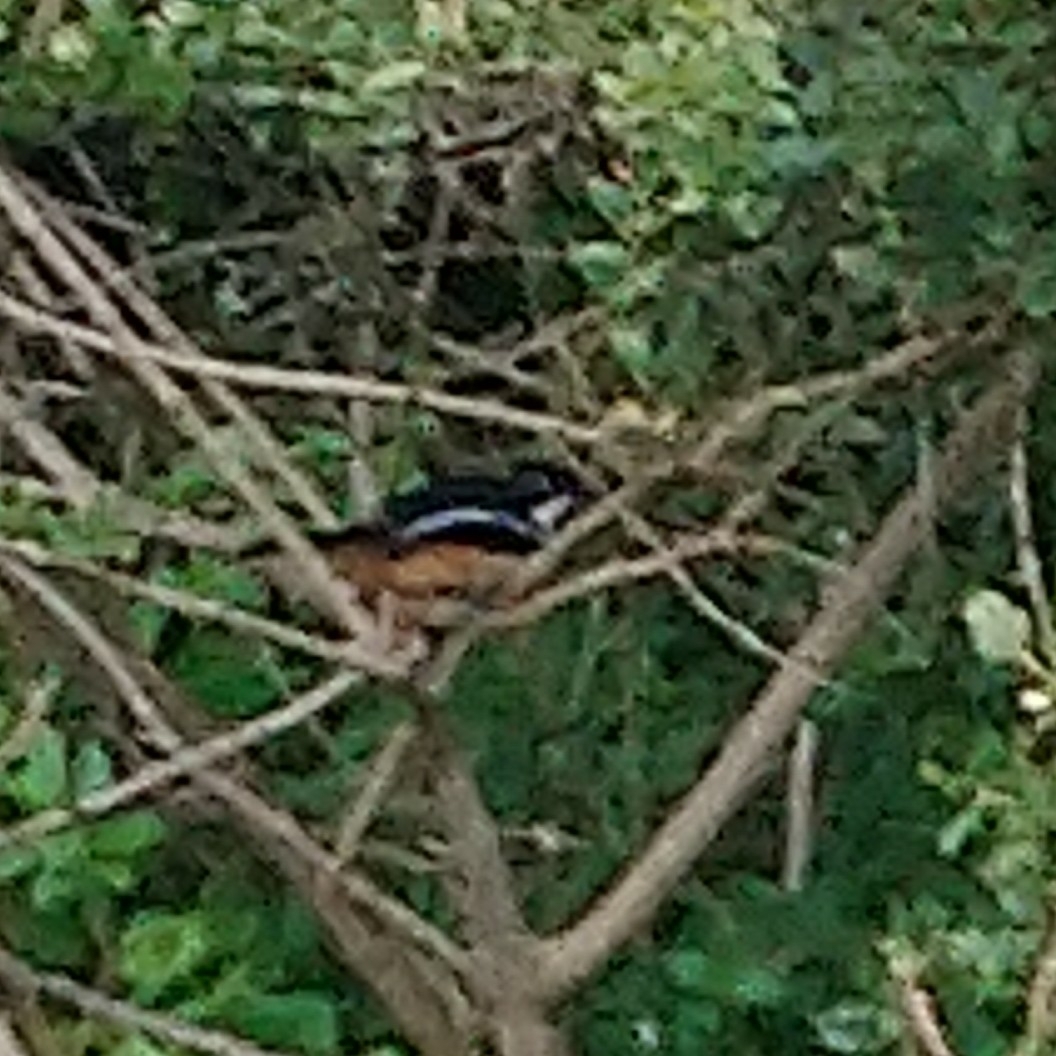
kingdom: Animalia
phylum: Chordata
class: Aves
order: Passeriformes
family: Malaconotidae
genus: Laniarius
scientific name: Laniarius ferrugineus
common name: Southern boubou
